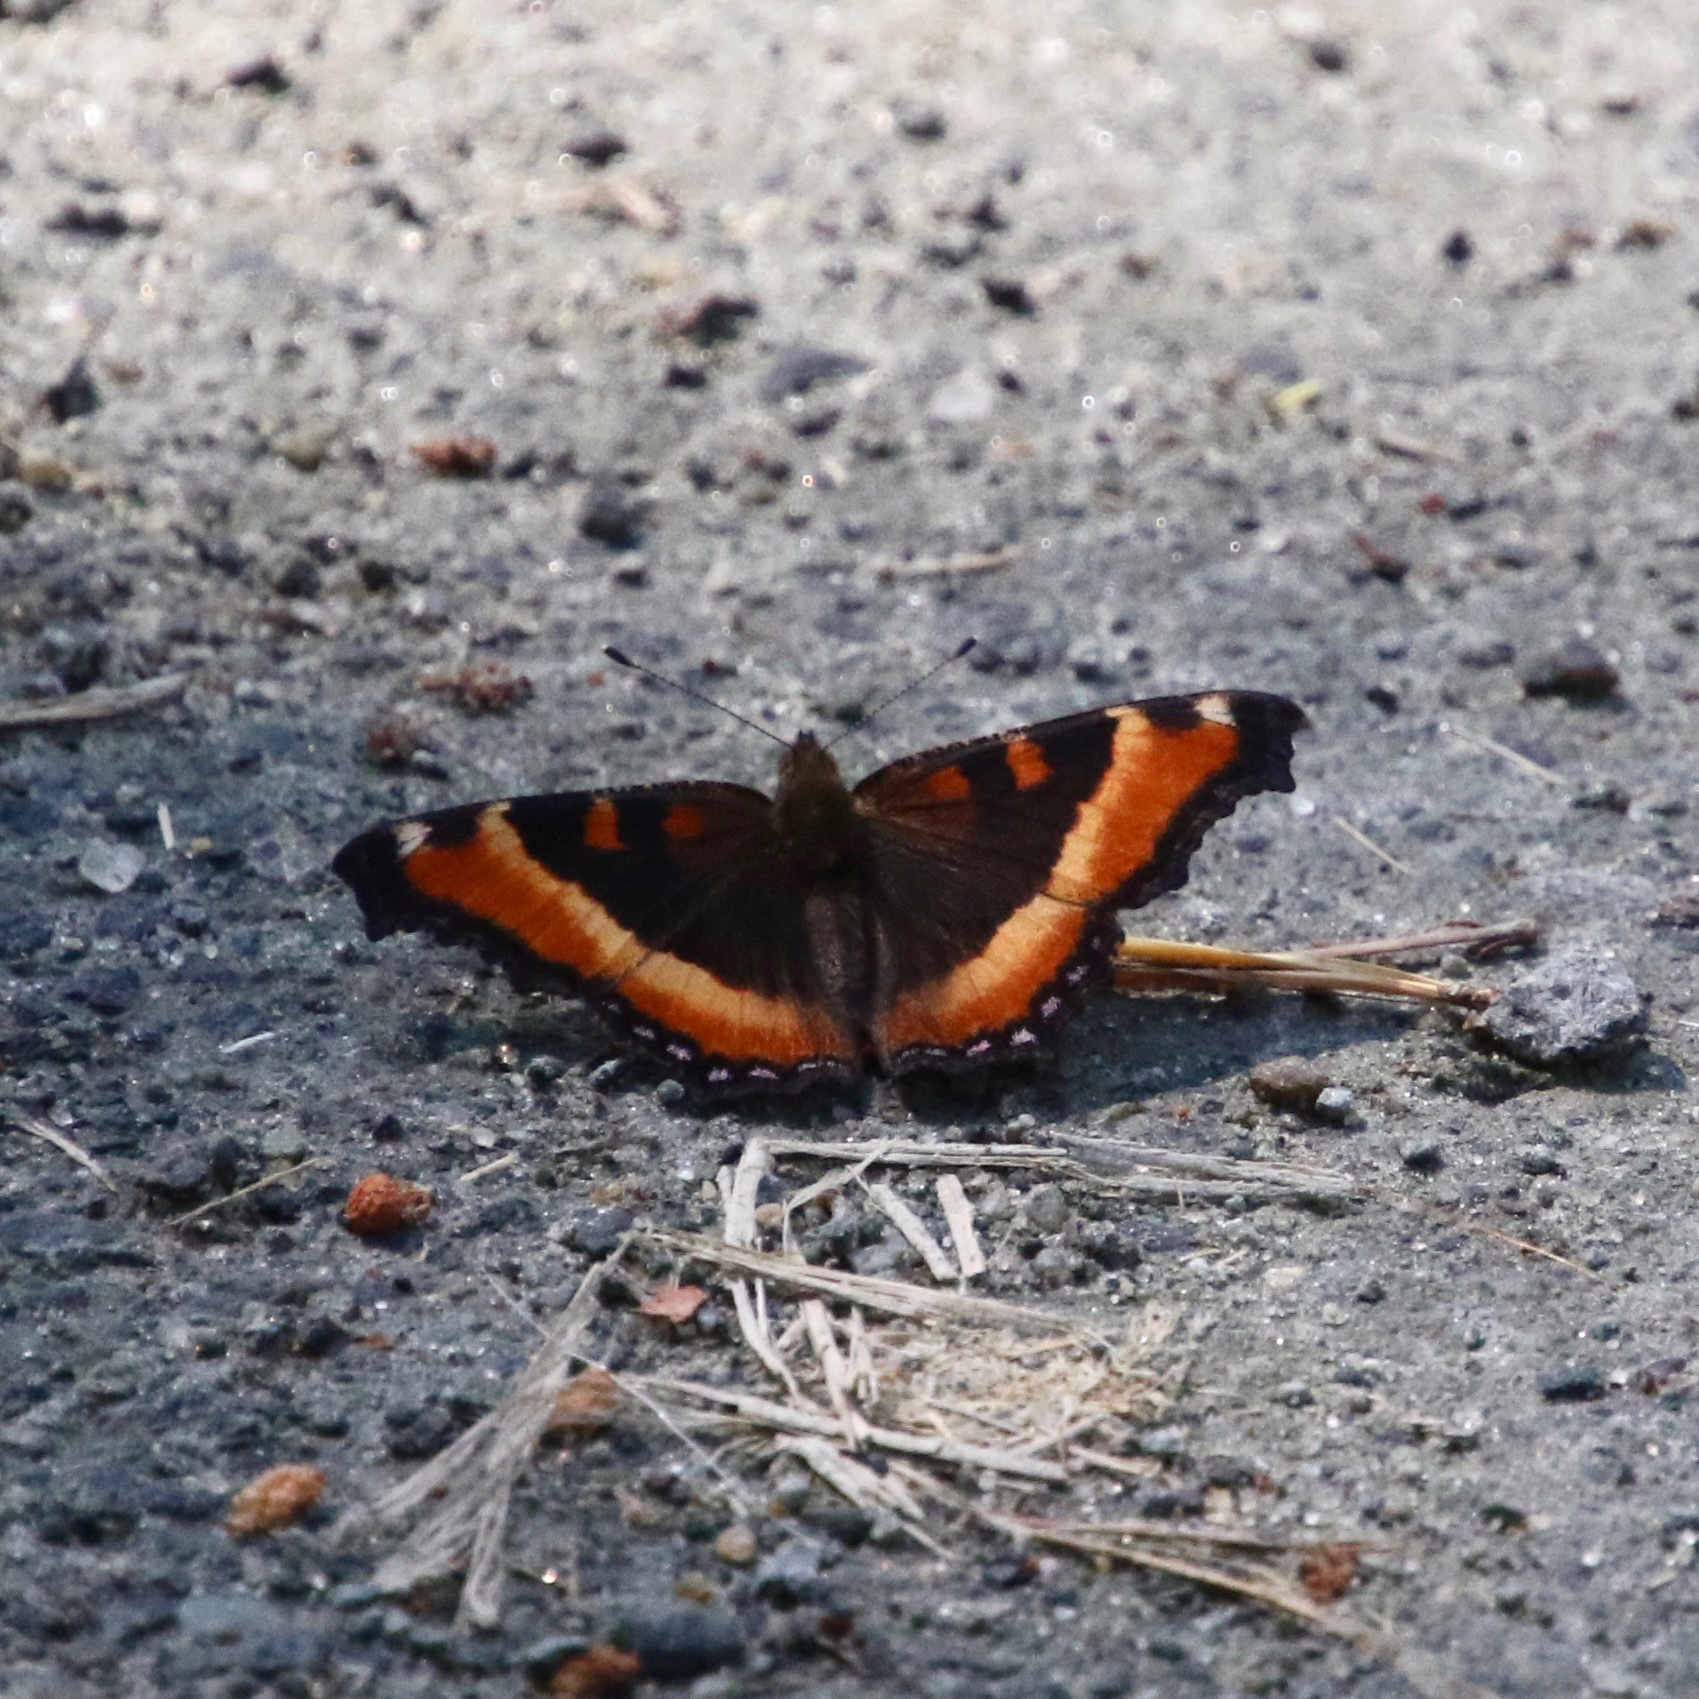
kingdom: Animalia
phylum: Arthropoda
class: Insecta
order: Lepidoptera
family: Nymphalidae
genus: Aglais
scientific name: Aglais milberti
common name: Milbert's tortoiseshell
